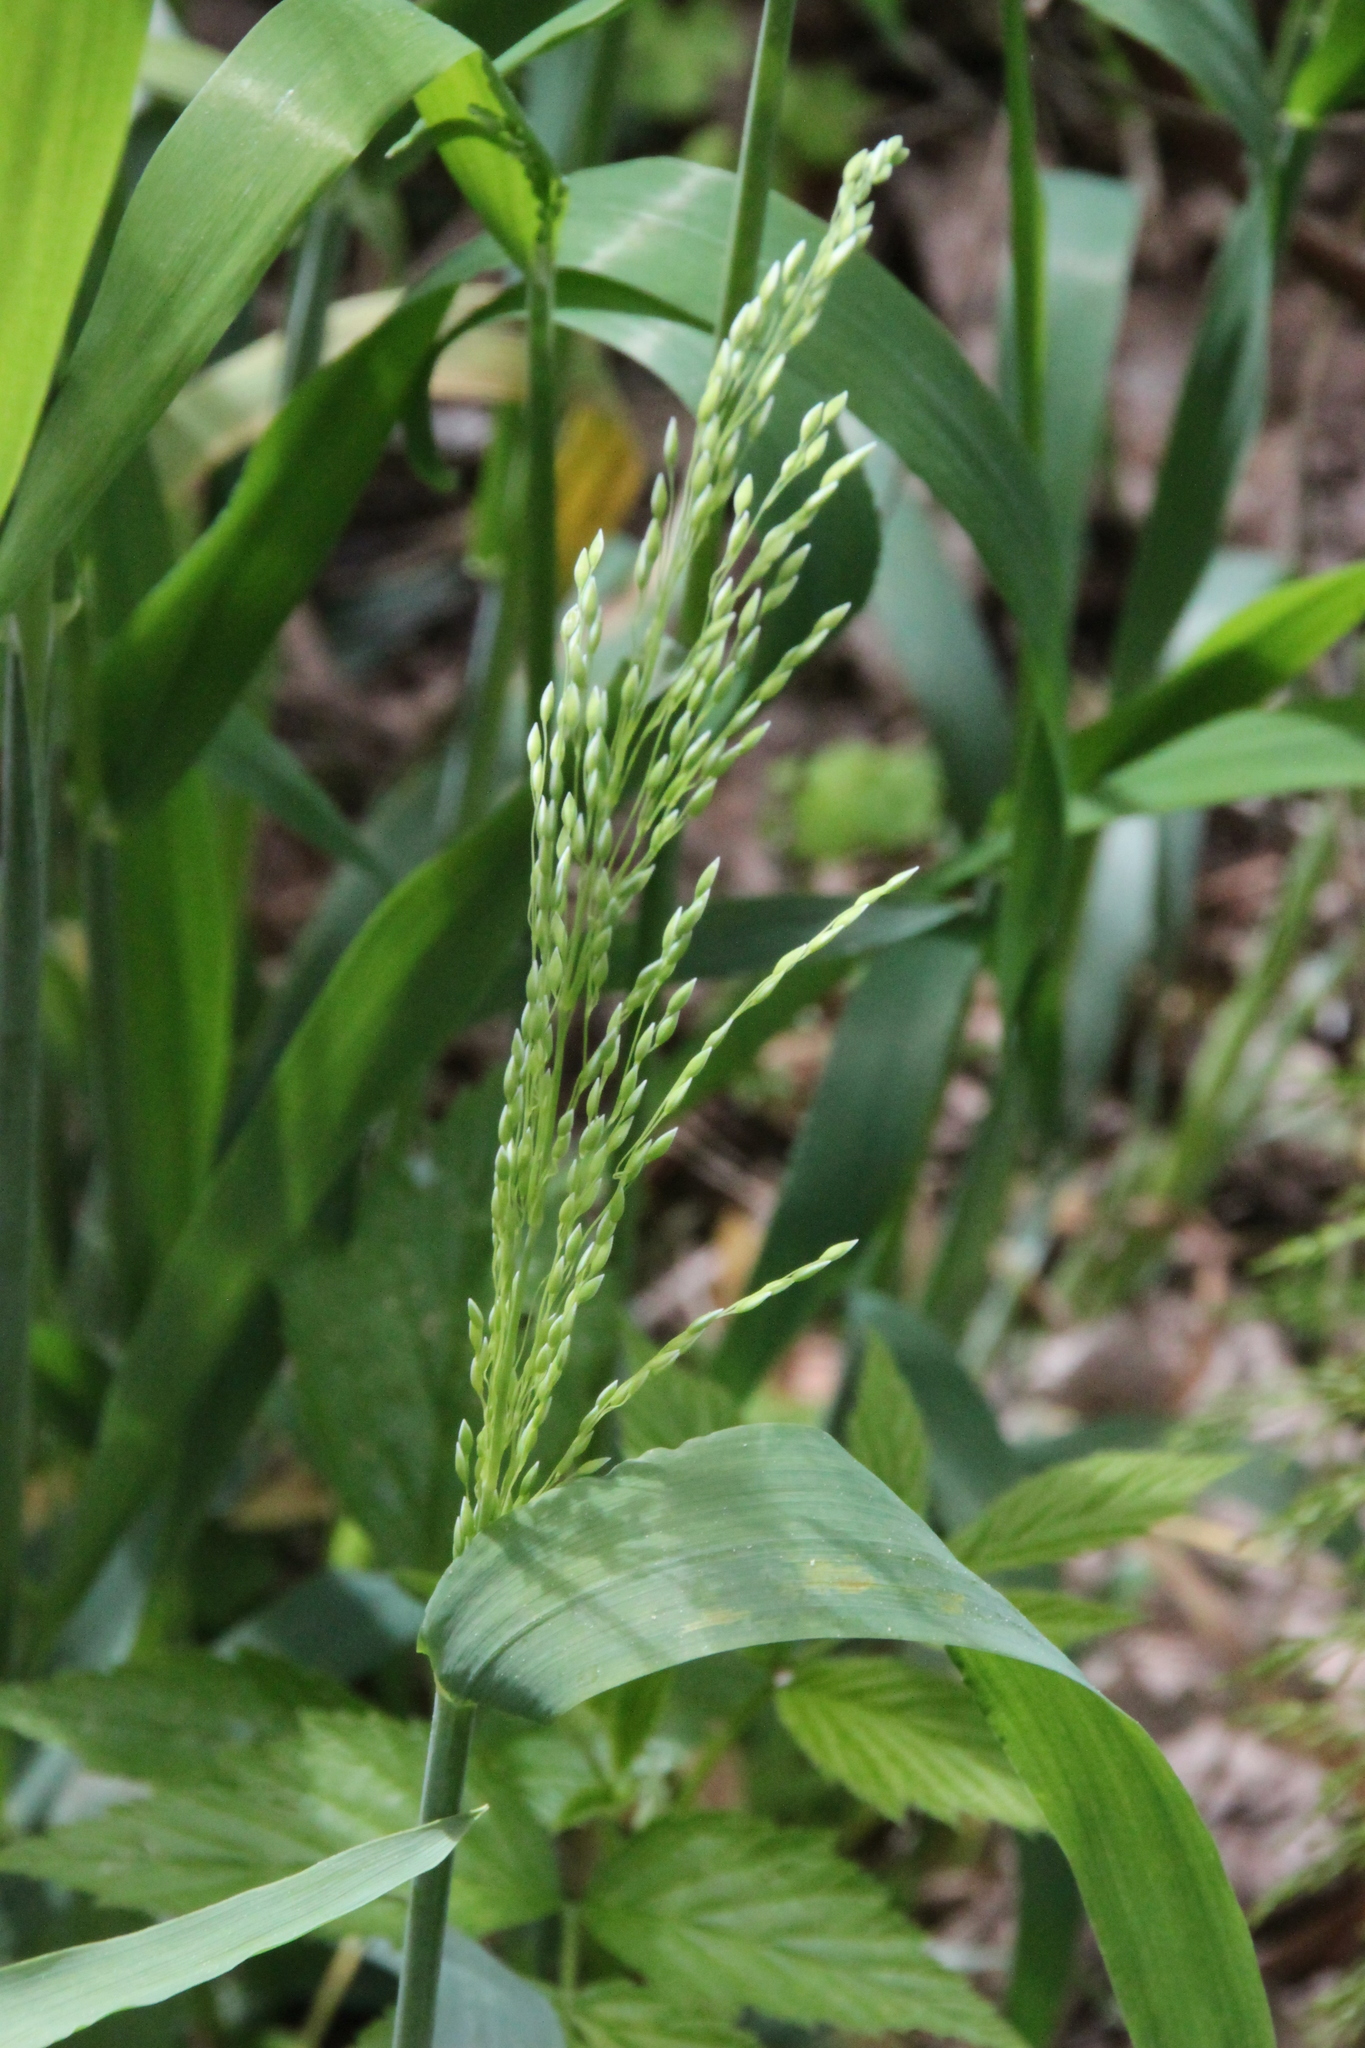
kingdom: Plantae
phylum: Tracheophyta
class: Liliopsida
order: Poales
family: Poaceae
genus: Milium
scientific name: Milium effusum
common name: Wood millet
